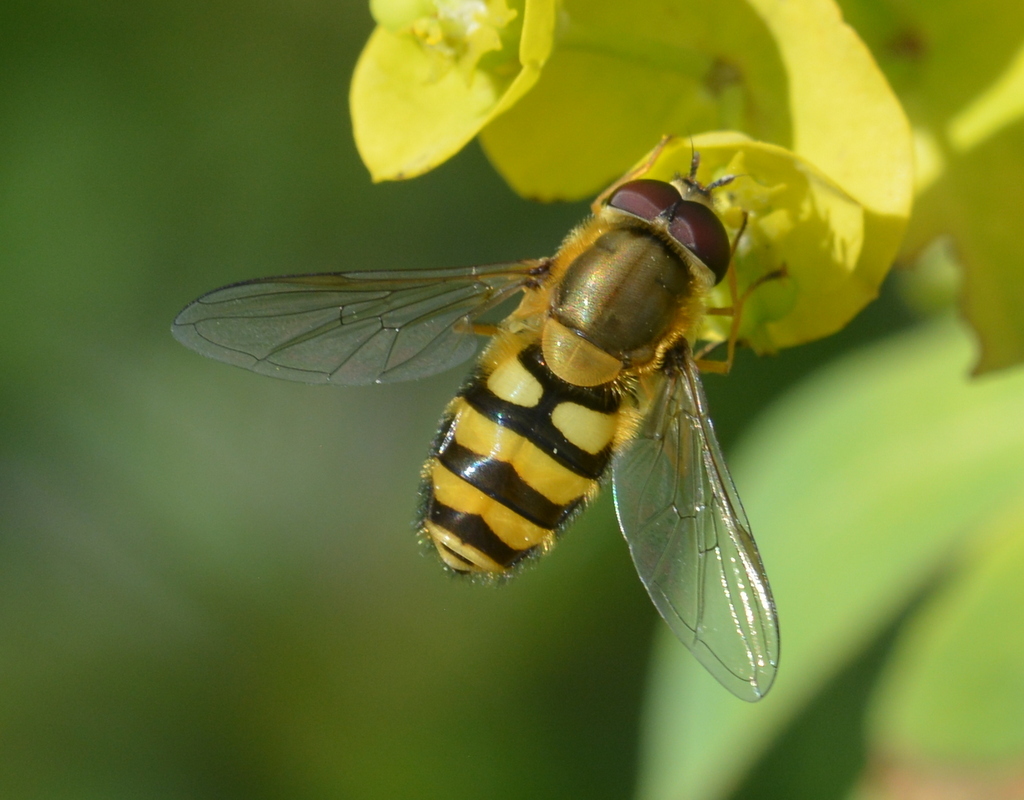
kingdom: Animalia
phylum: Arthropoda
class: Insecta
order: Diptera
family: Syrphidae
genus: Syrphus
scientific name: Syrphus
